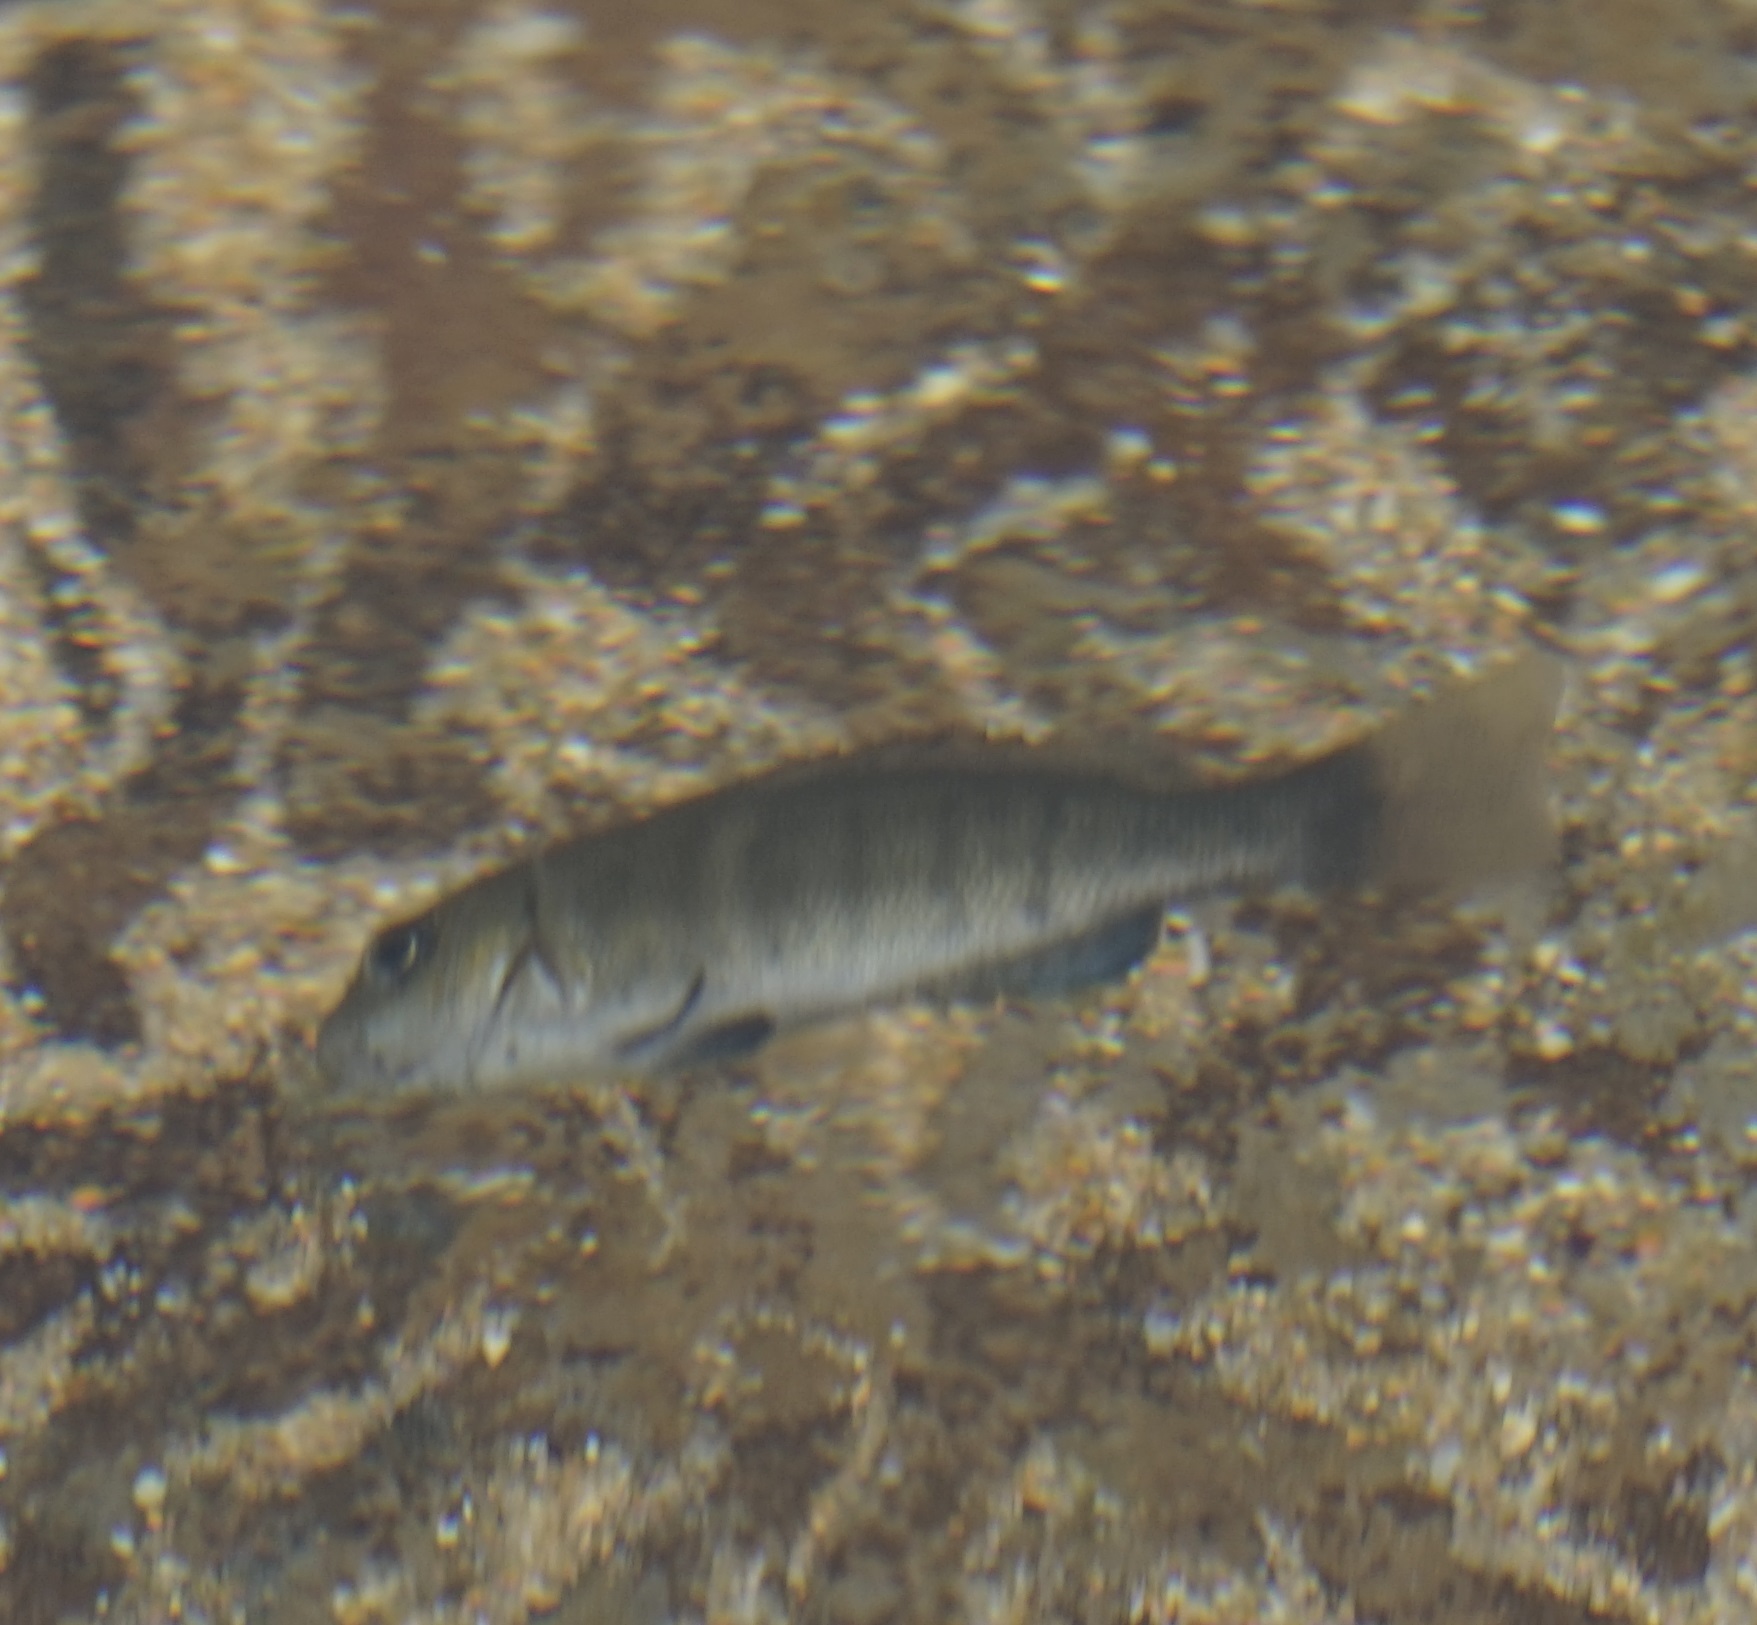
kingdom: Animalia
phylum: Chordata
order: Perciformes
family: Kyphosidae
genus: Girella
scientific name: Girella tricuspidata
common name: Parore
